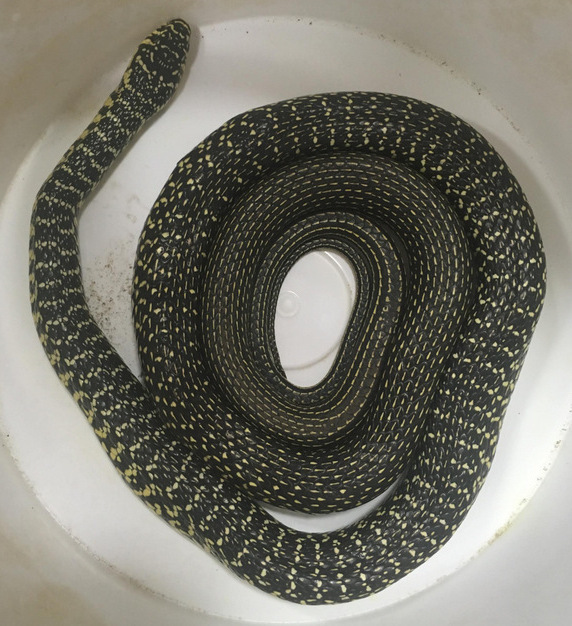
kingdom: Animalia
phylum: Chordata
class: Squamata
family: Colubridae
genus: Hierophis
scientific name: Hierophis viridiflavus
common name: Green whip snake
